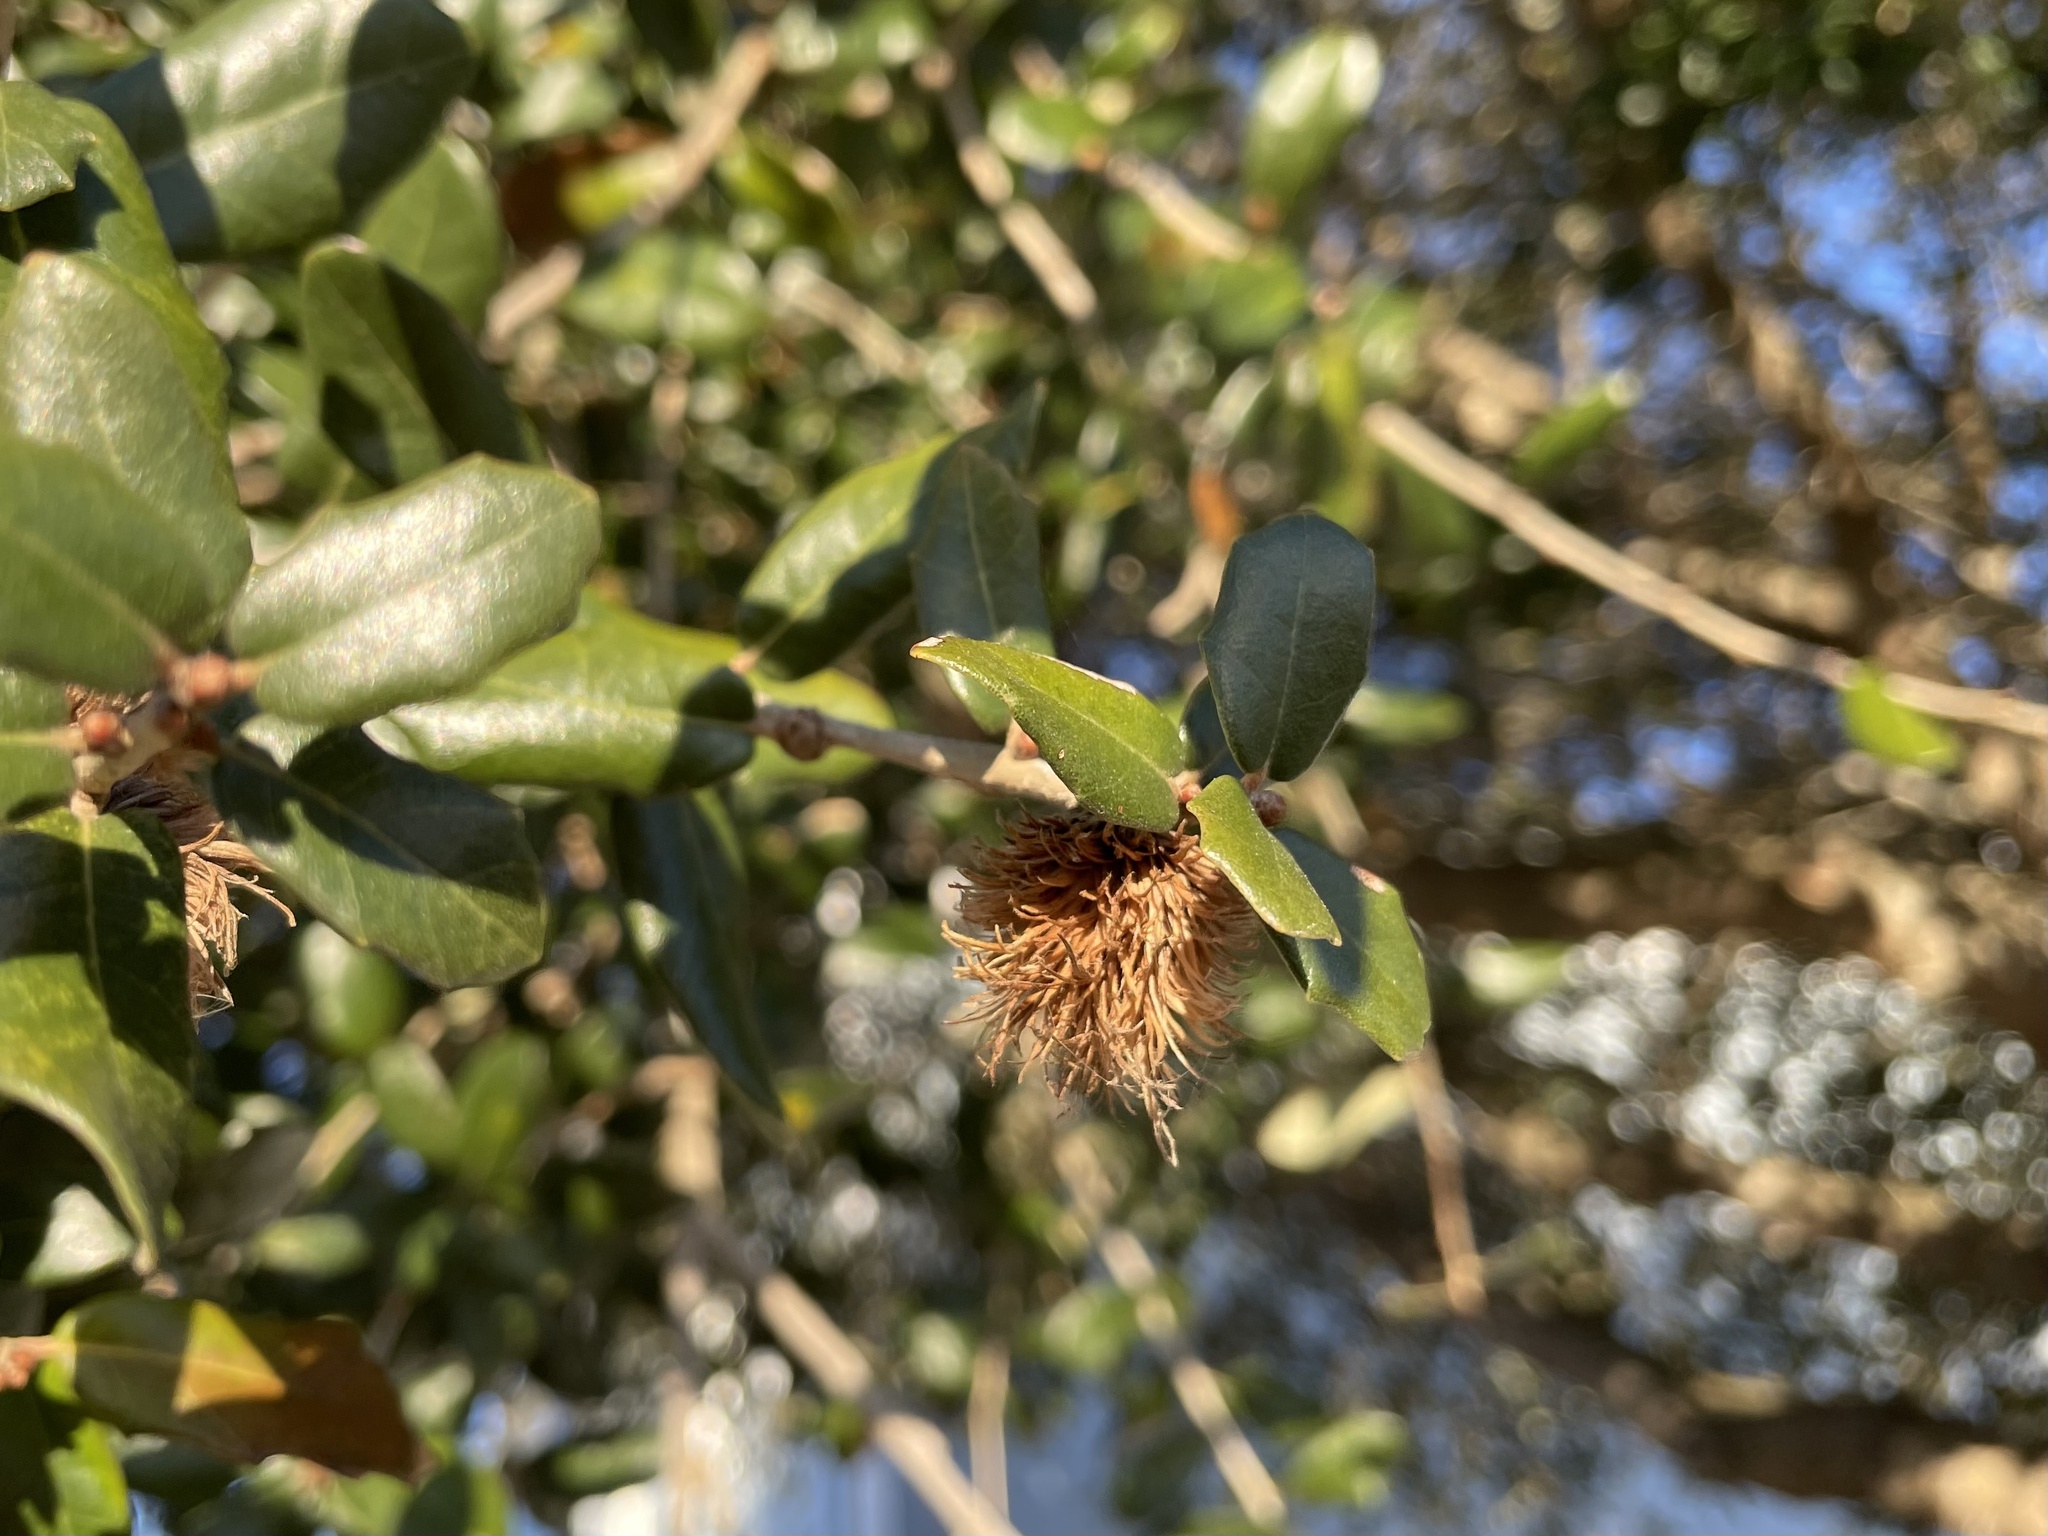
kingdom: Animalia
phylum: Arthropoda
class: Insecta
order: Hymenoptera
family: Cynipidae
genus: Andricus
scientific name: Andricus quercusfoliatus
